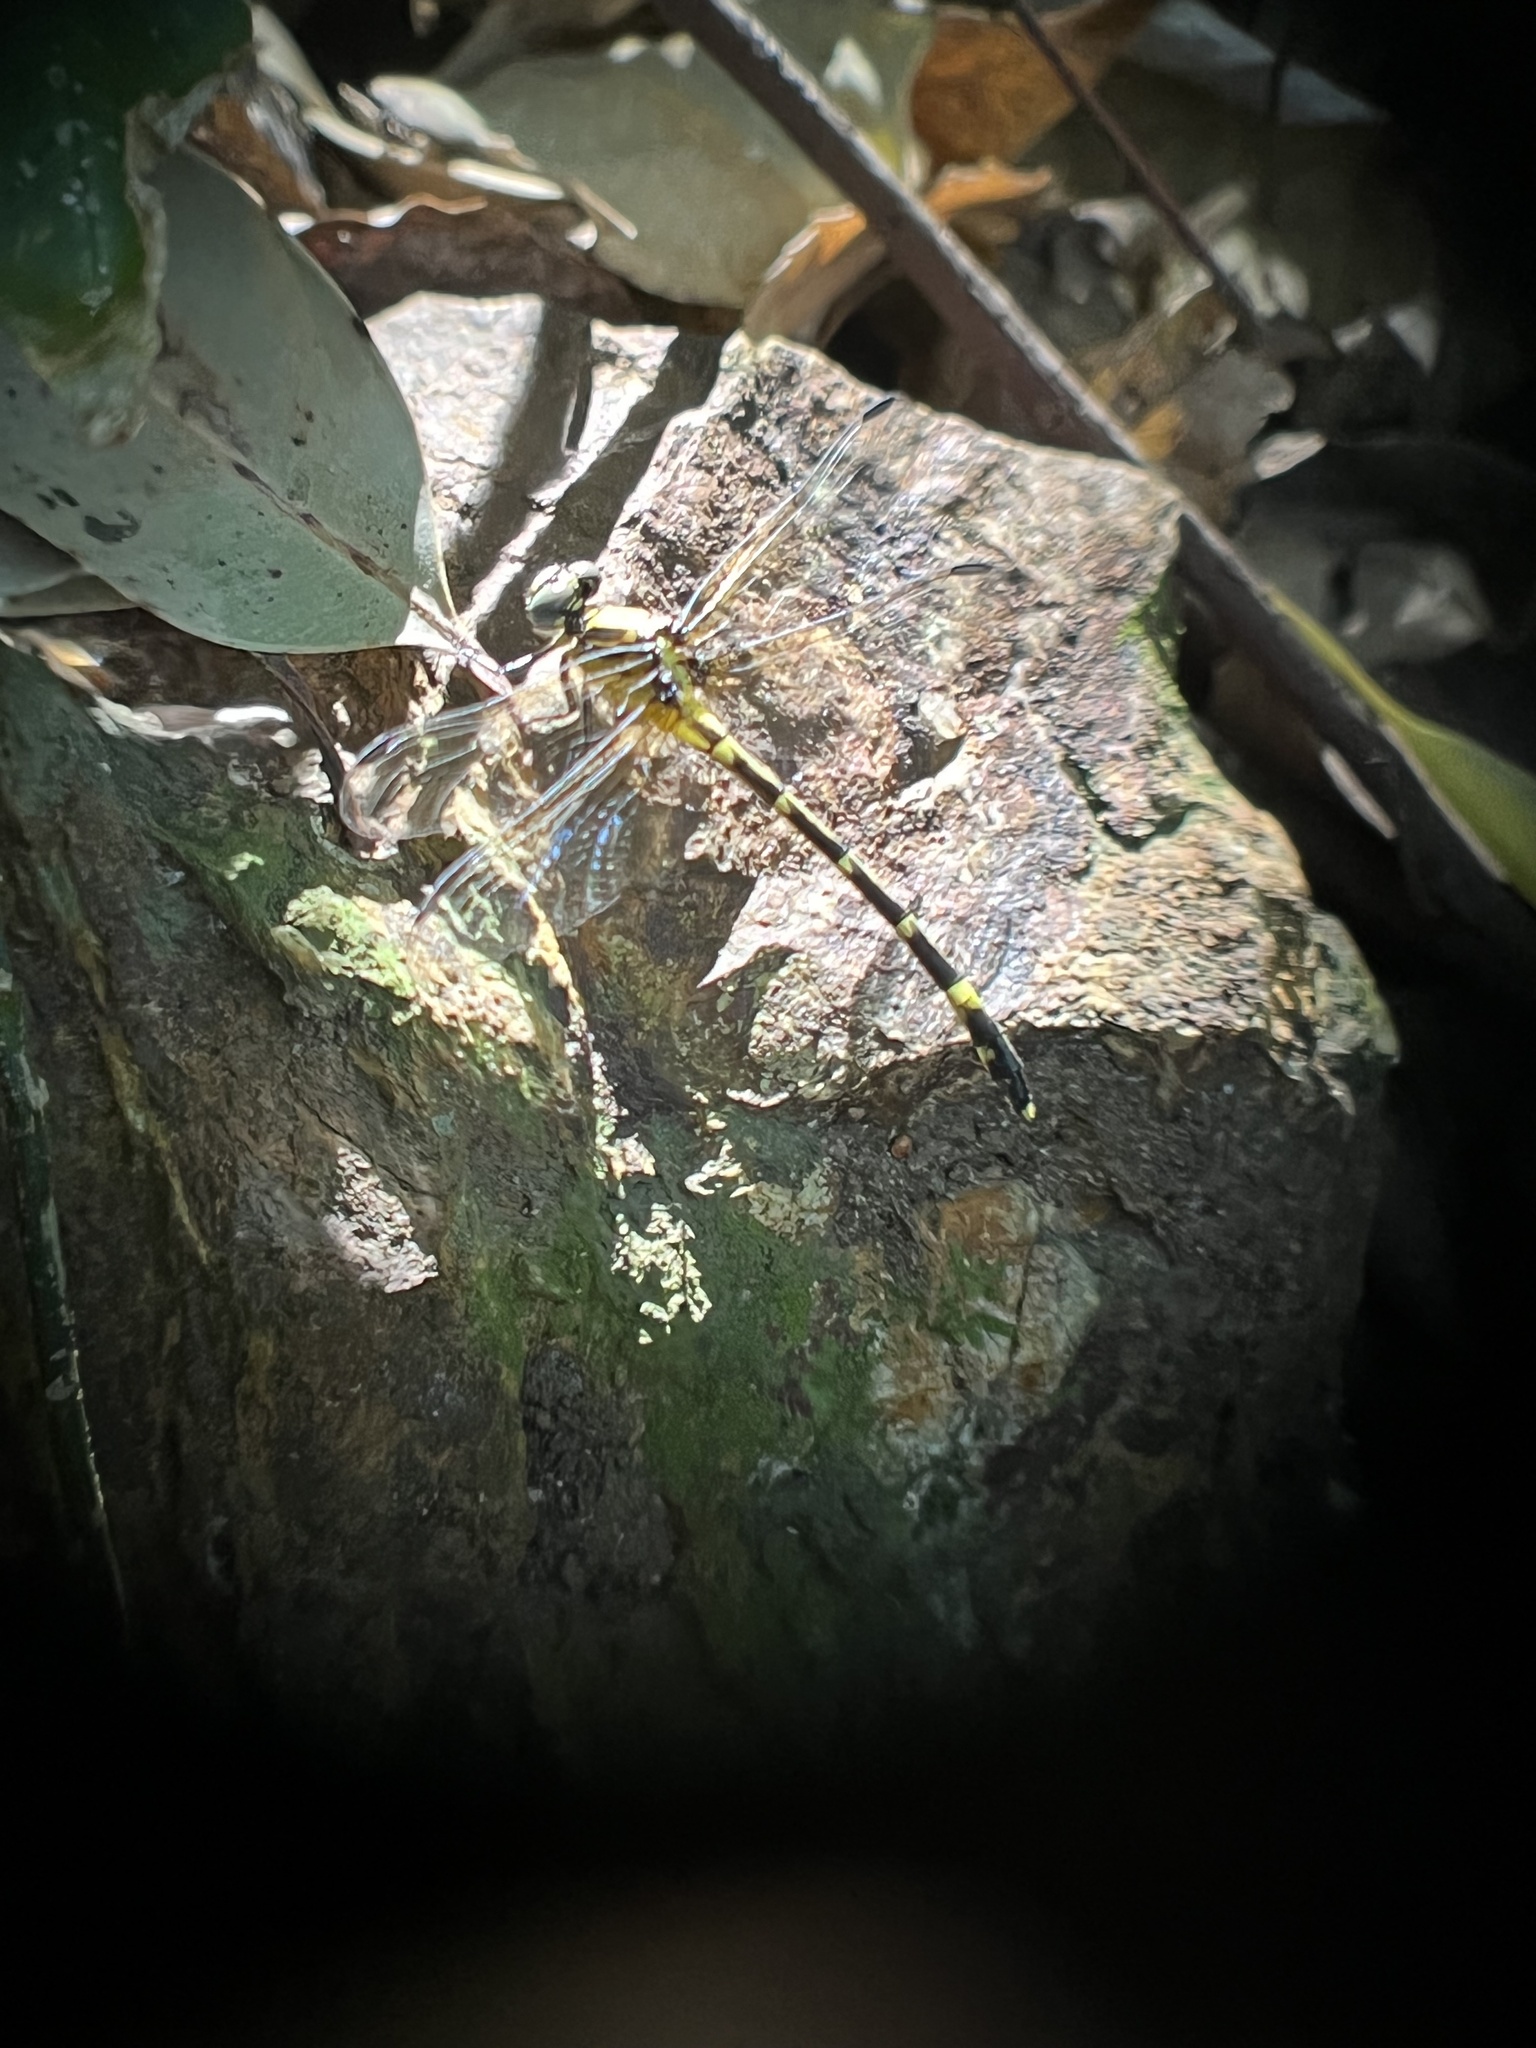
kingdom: Animalia
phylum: Arthropoda
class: Insecta
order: Odonata
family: Gomphidae
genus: Austrogomphus
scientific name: Austrogomphus amphiclitus
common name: Pale hunter
